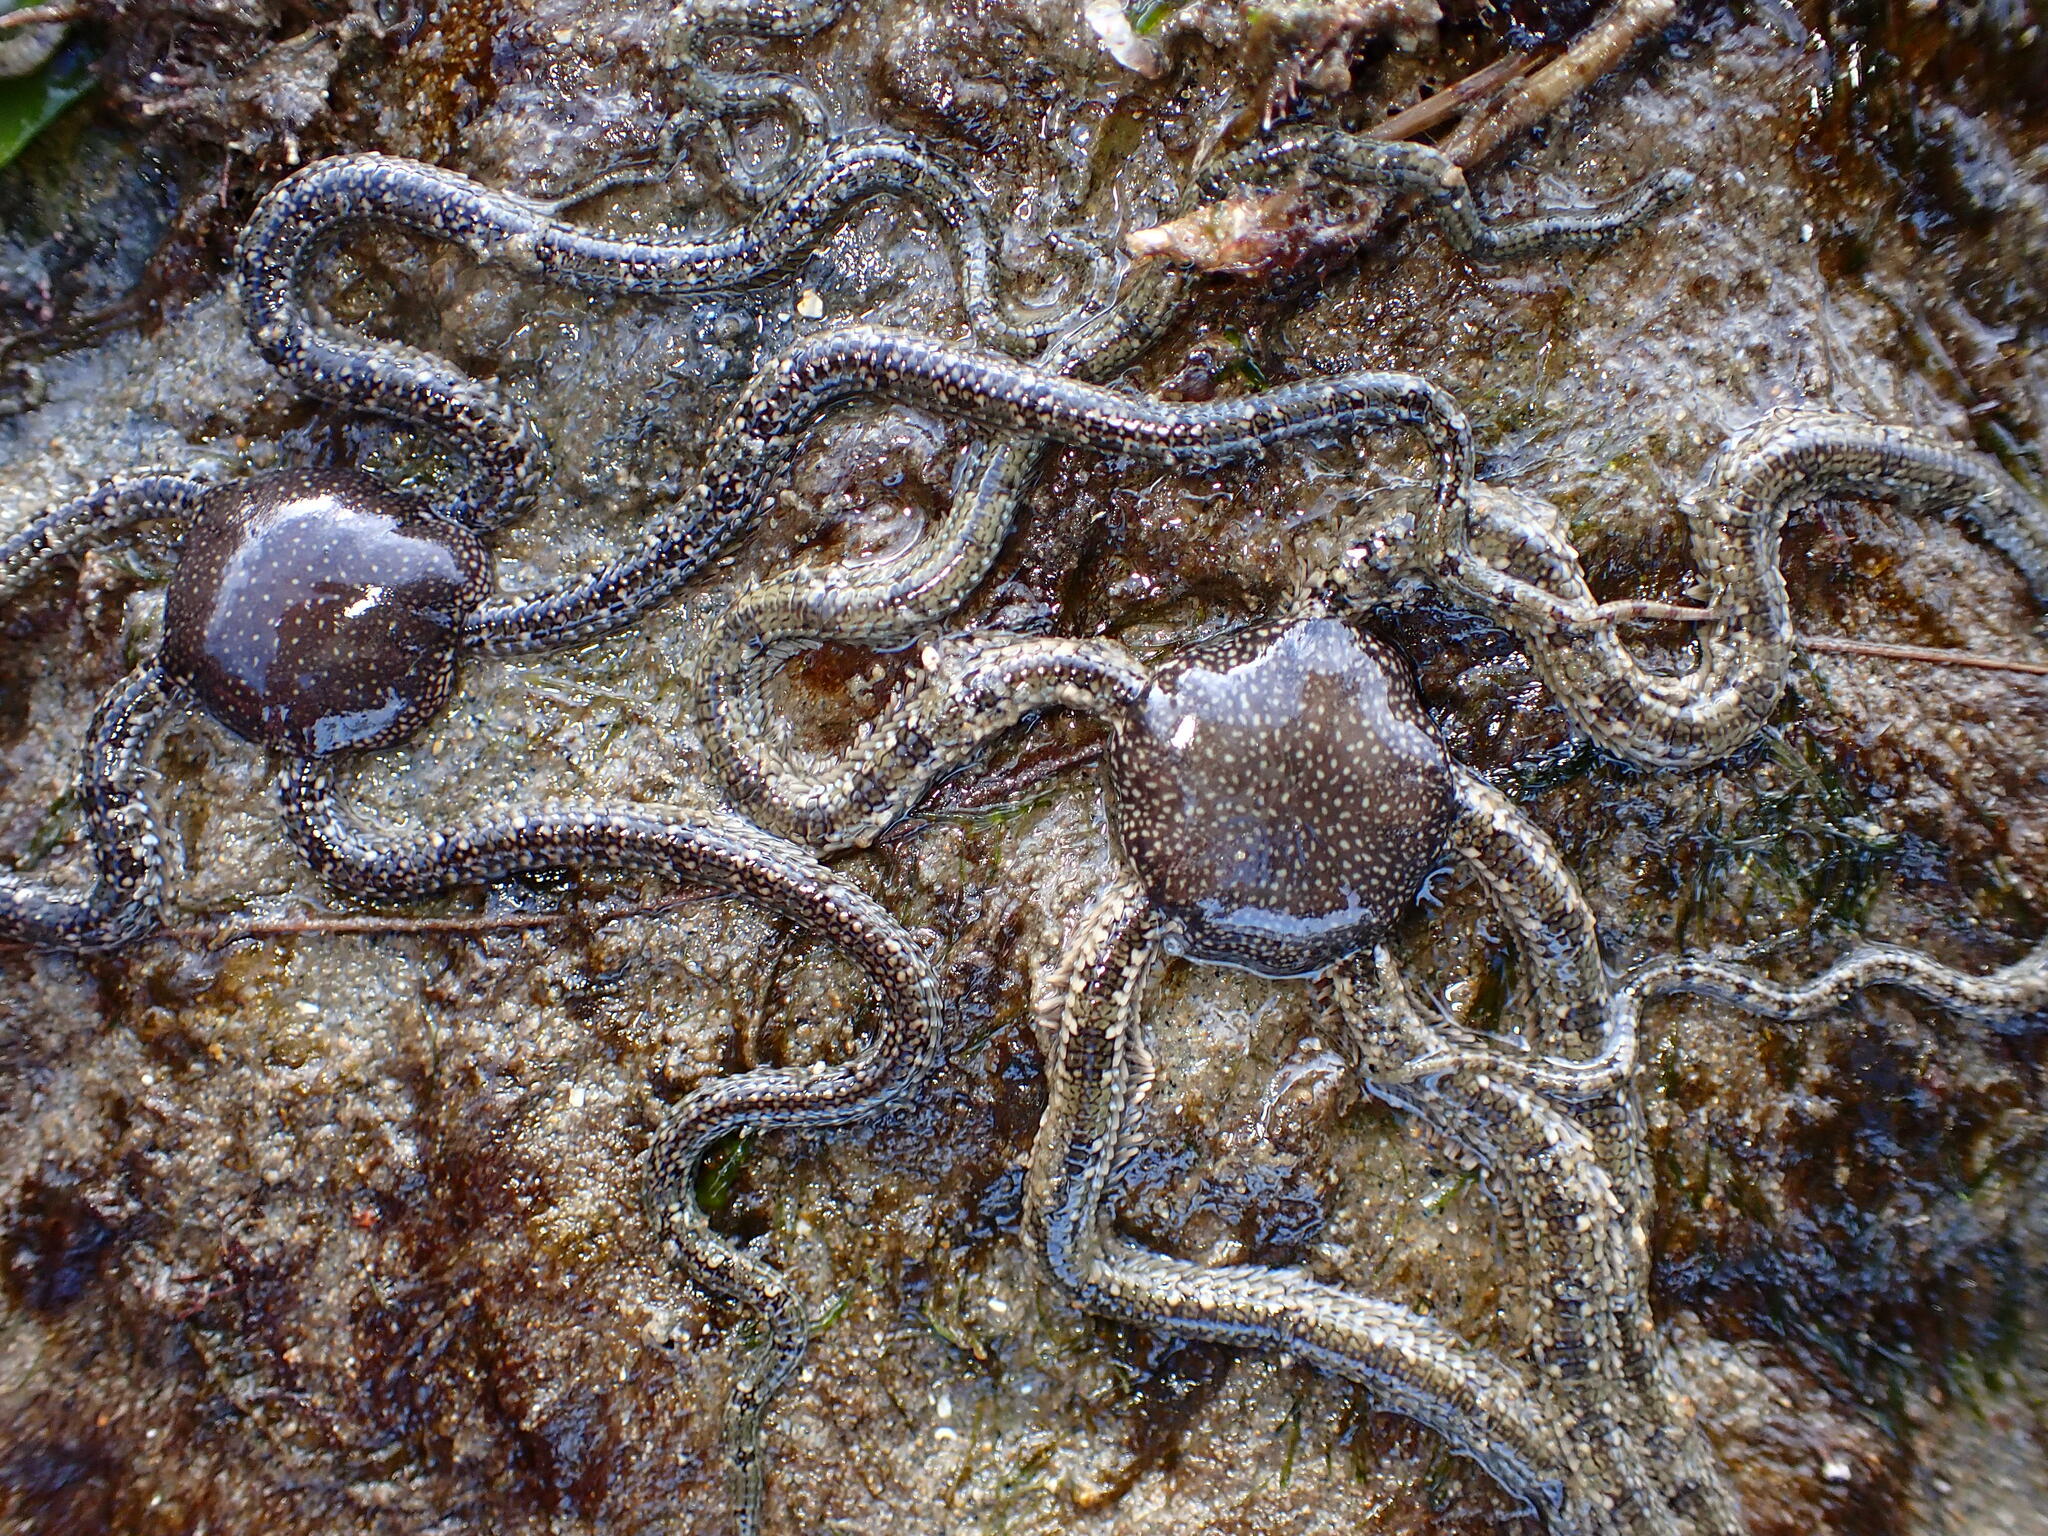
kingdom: Animalia
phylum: Echinodermata
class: Ophiuroidea
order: Amphilepidida
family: Ophionereididae
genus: Ophionereis
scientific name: Ophionereis annulata
